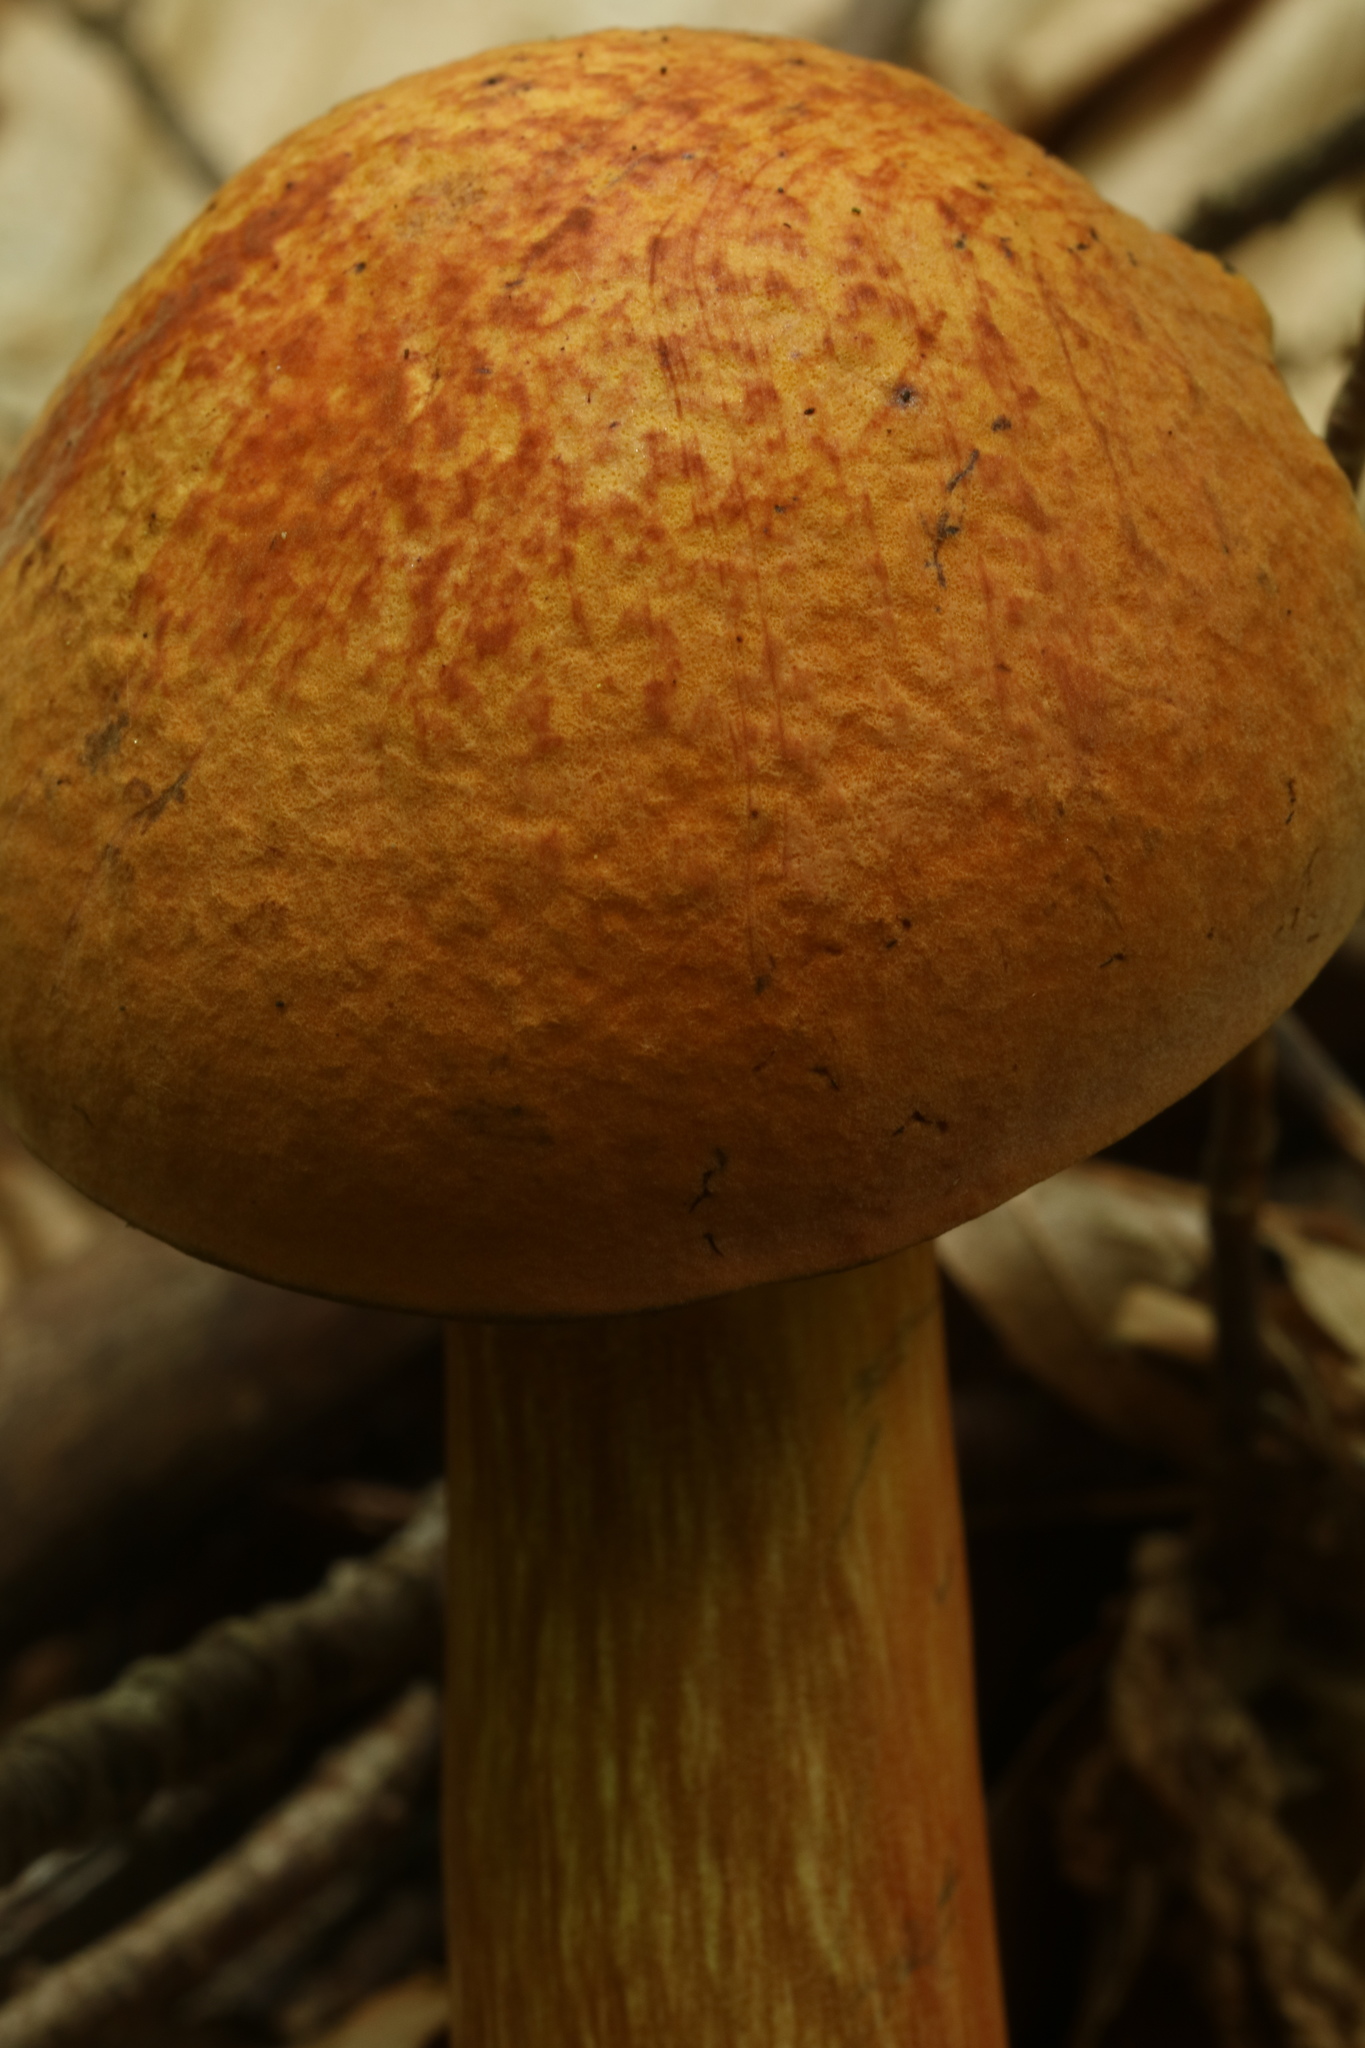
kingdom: Fungi
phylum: Basidiomycota
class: Agaricomycetes
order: Boletales
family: Boletaceae
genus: Boletus
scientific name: Boletus subvelutipes
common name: Red-mouth bolete
